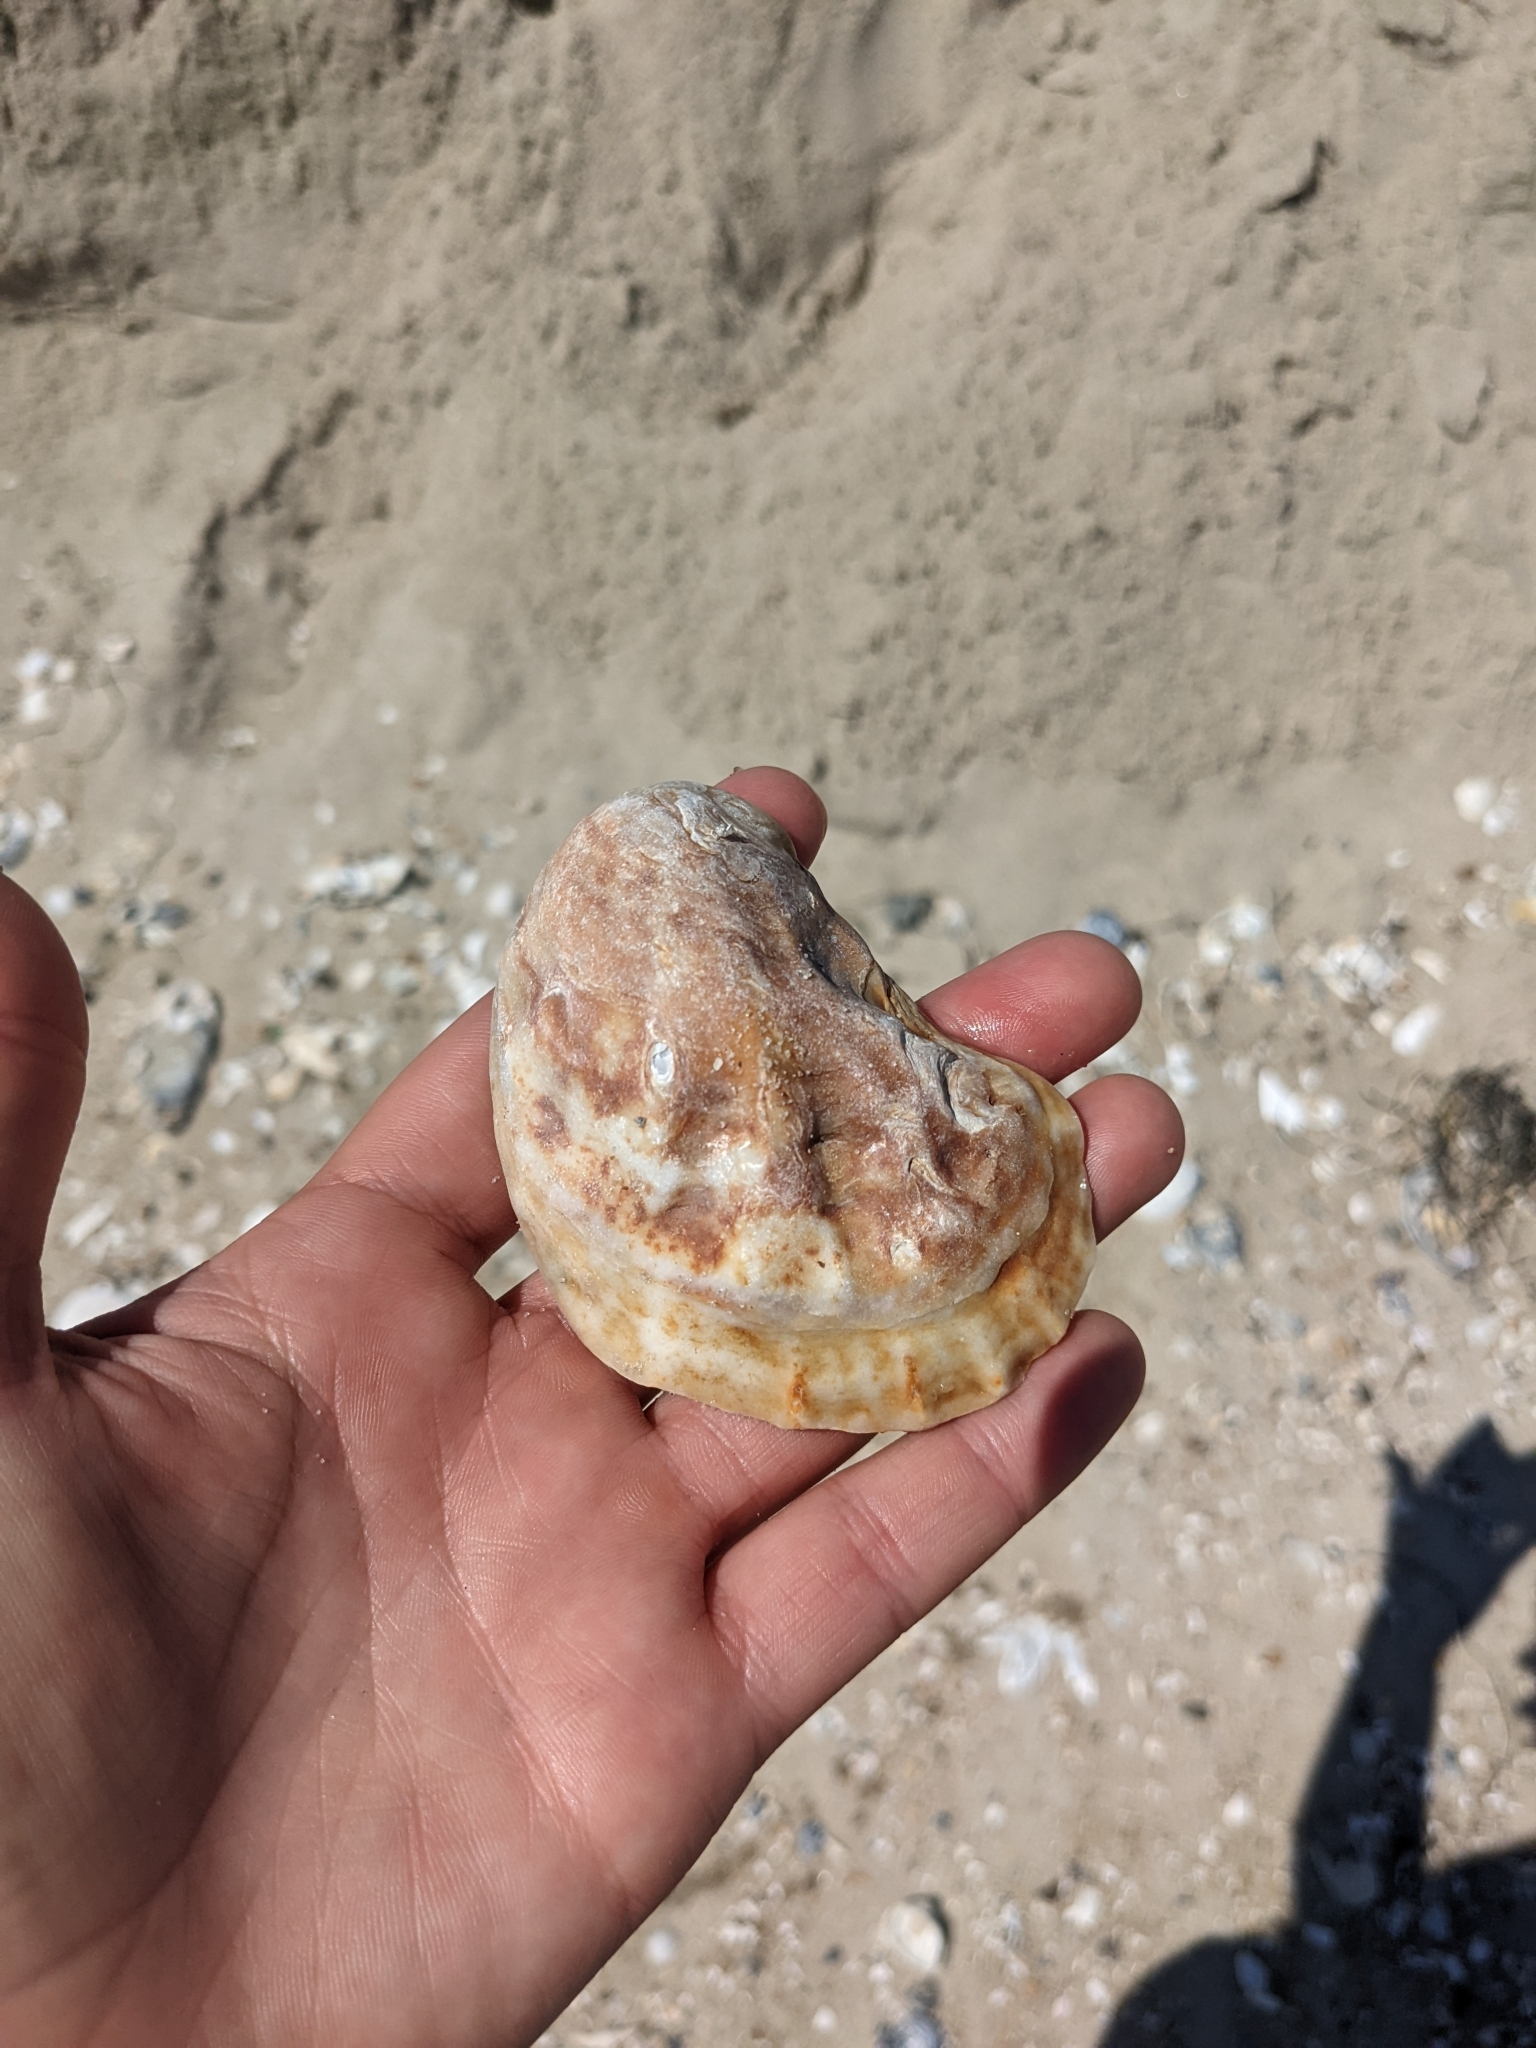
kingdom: Animalia
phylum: Mollusca
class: Bivalvia
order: Ostreida
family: Ostreidae
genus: Crassostrea
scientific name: Crassostrea virginica
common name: American oyster
